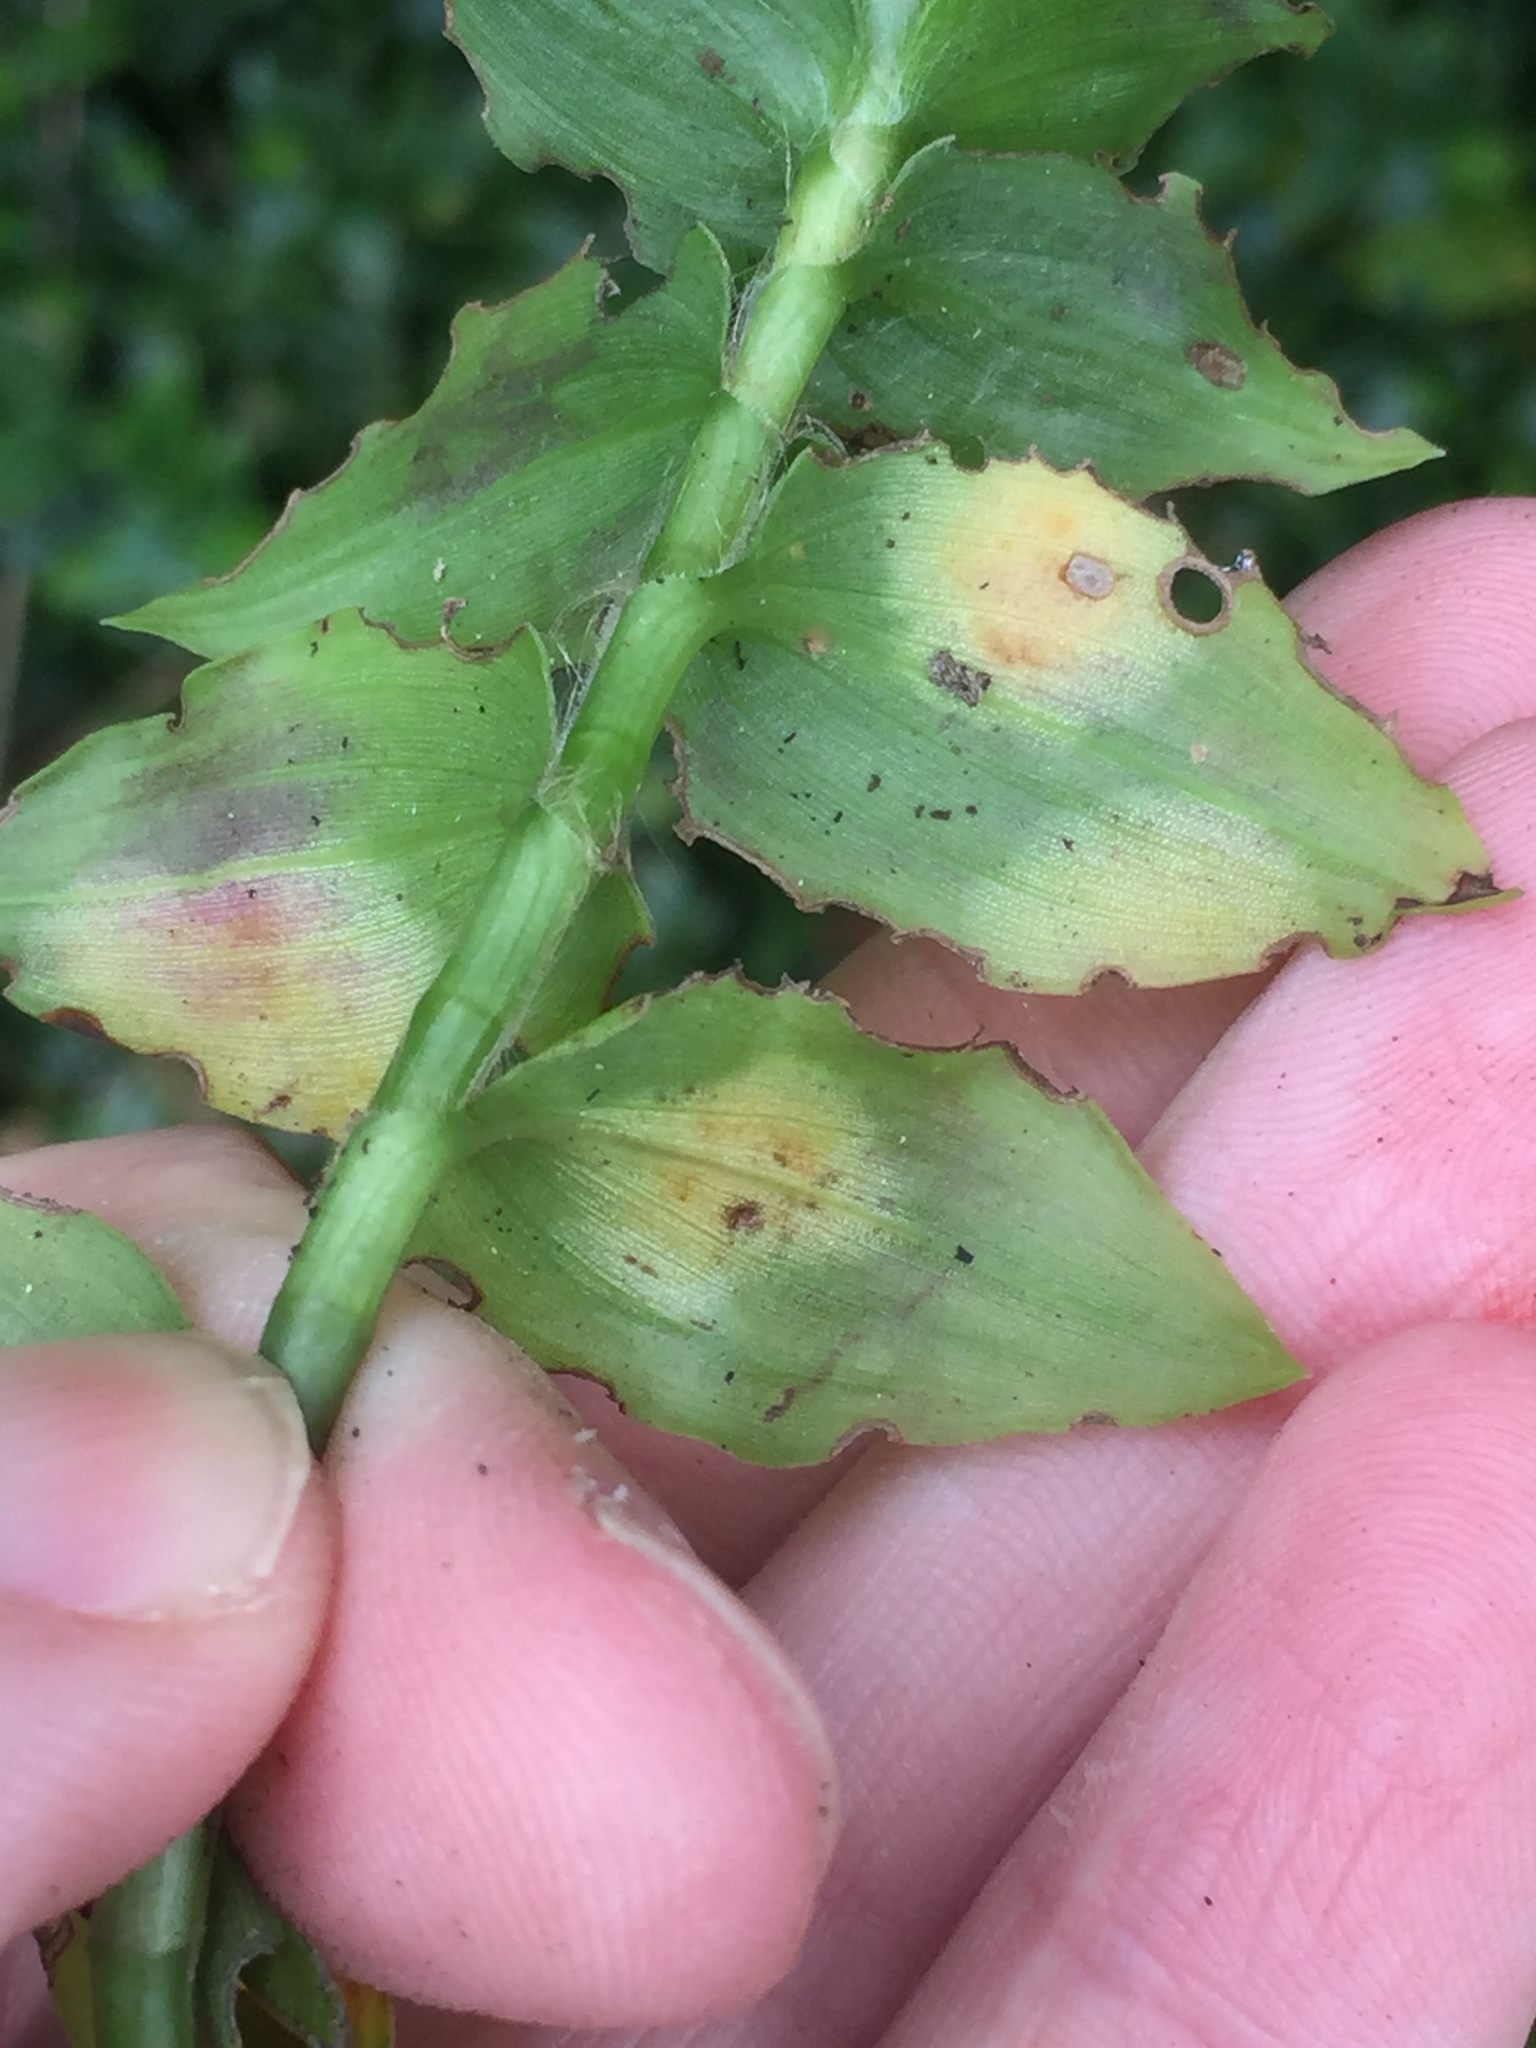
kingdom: Fungi
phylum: Basidiomycota
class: Exobasidiomycetes
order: Exobasidiales
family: Brachybasidiaceae
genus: Kordyana
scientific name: Kordyana brasiliensis
